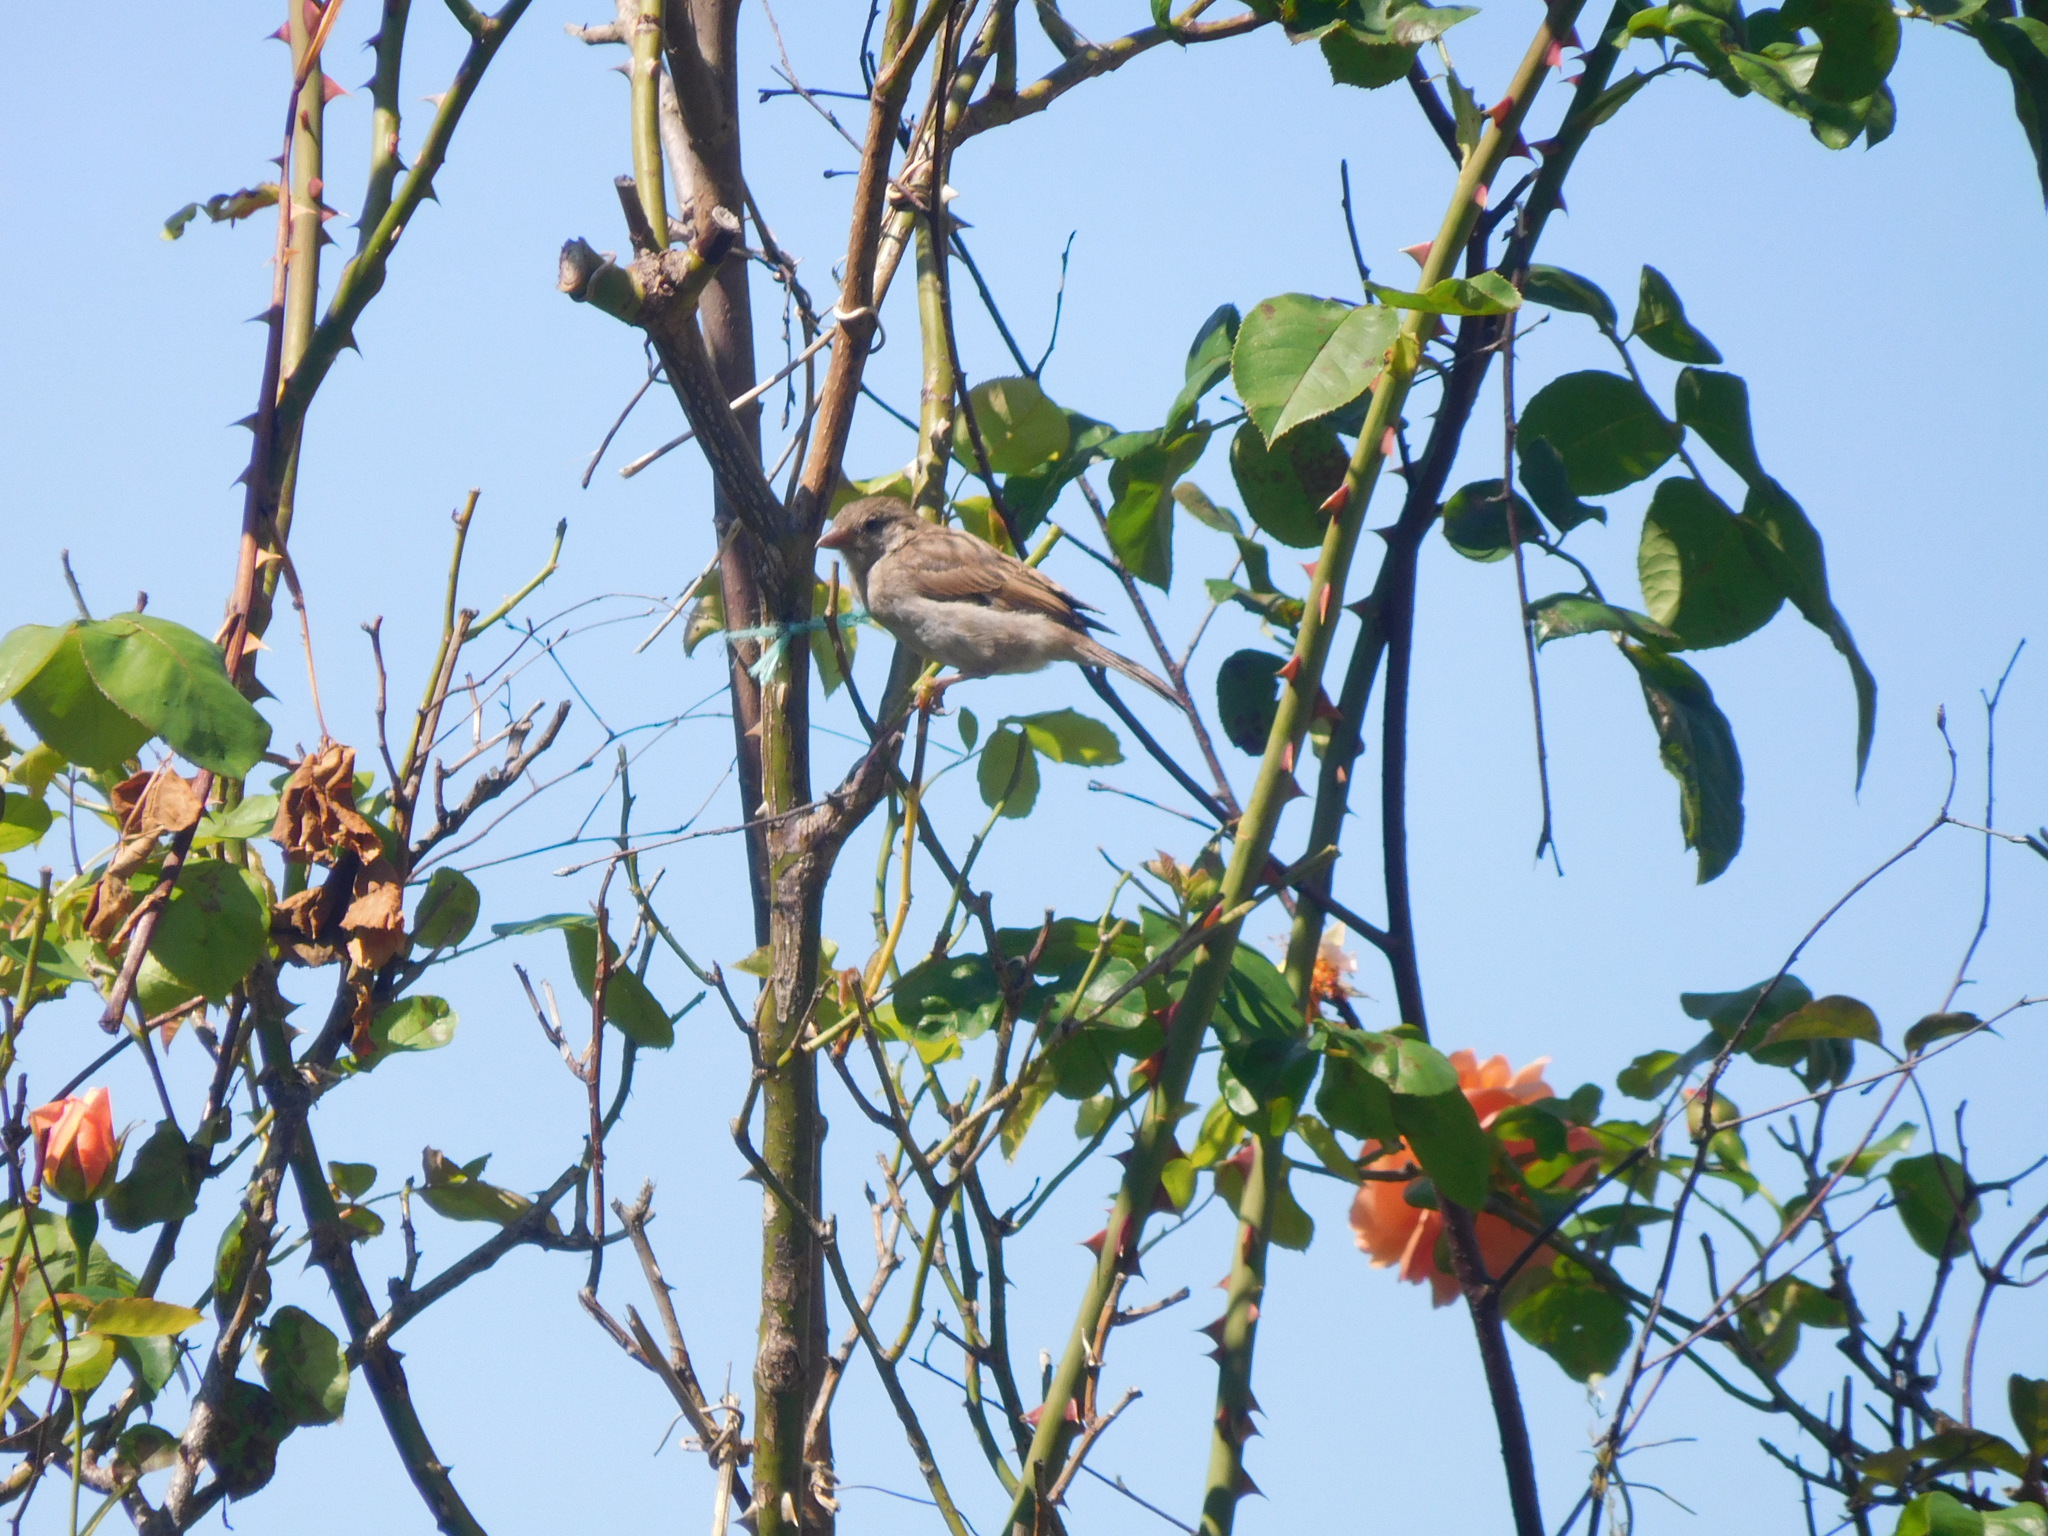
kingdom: Animalia
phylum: Chordata
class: Aves
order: Passeriformes
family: Passeridae
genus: Passer
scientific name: Passer domesticus
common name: House sparrow
